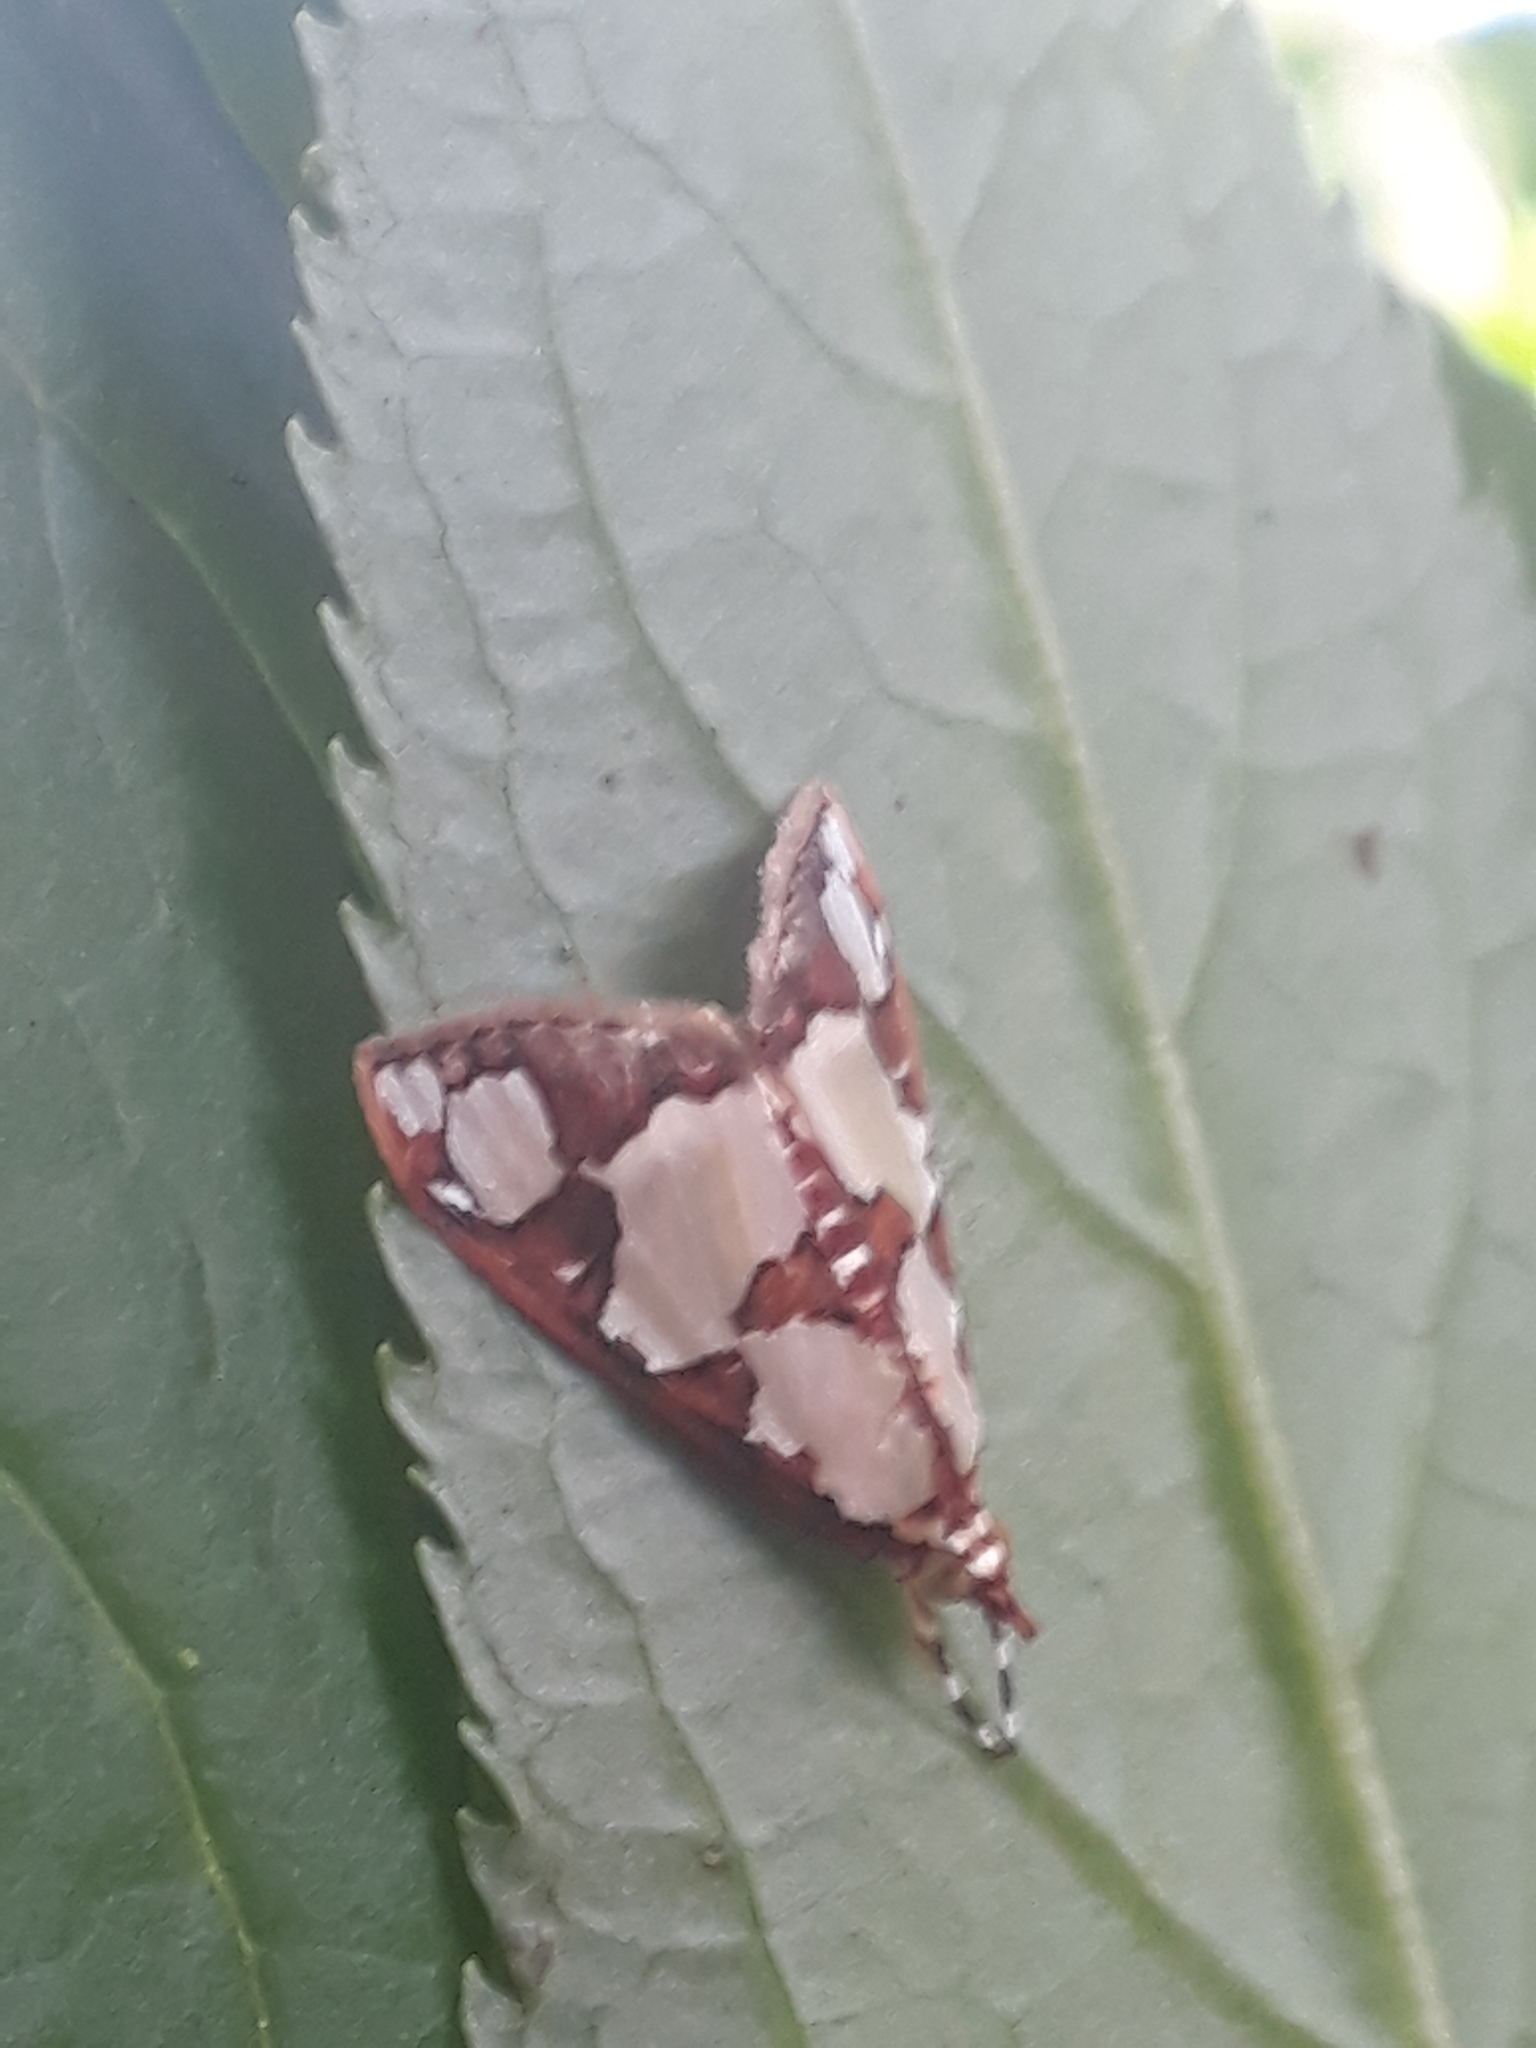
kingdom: Animalia
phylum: Arthropoda
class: Insecta
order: Lepidoptera
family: Crambidae
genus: Argyrarcha
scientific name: Argyrarcha margarita
